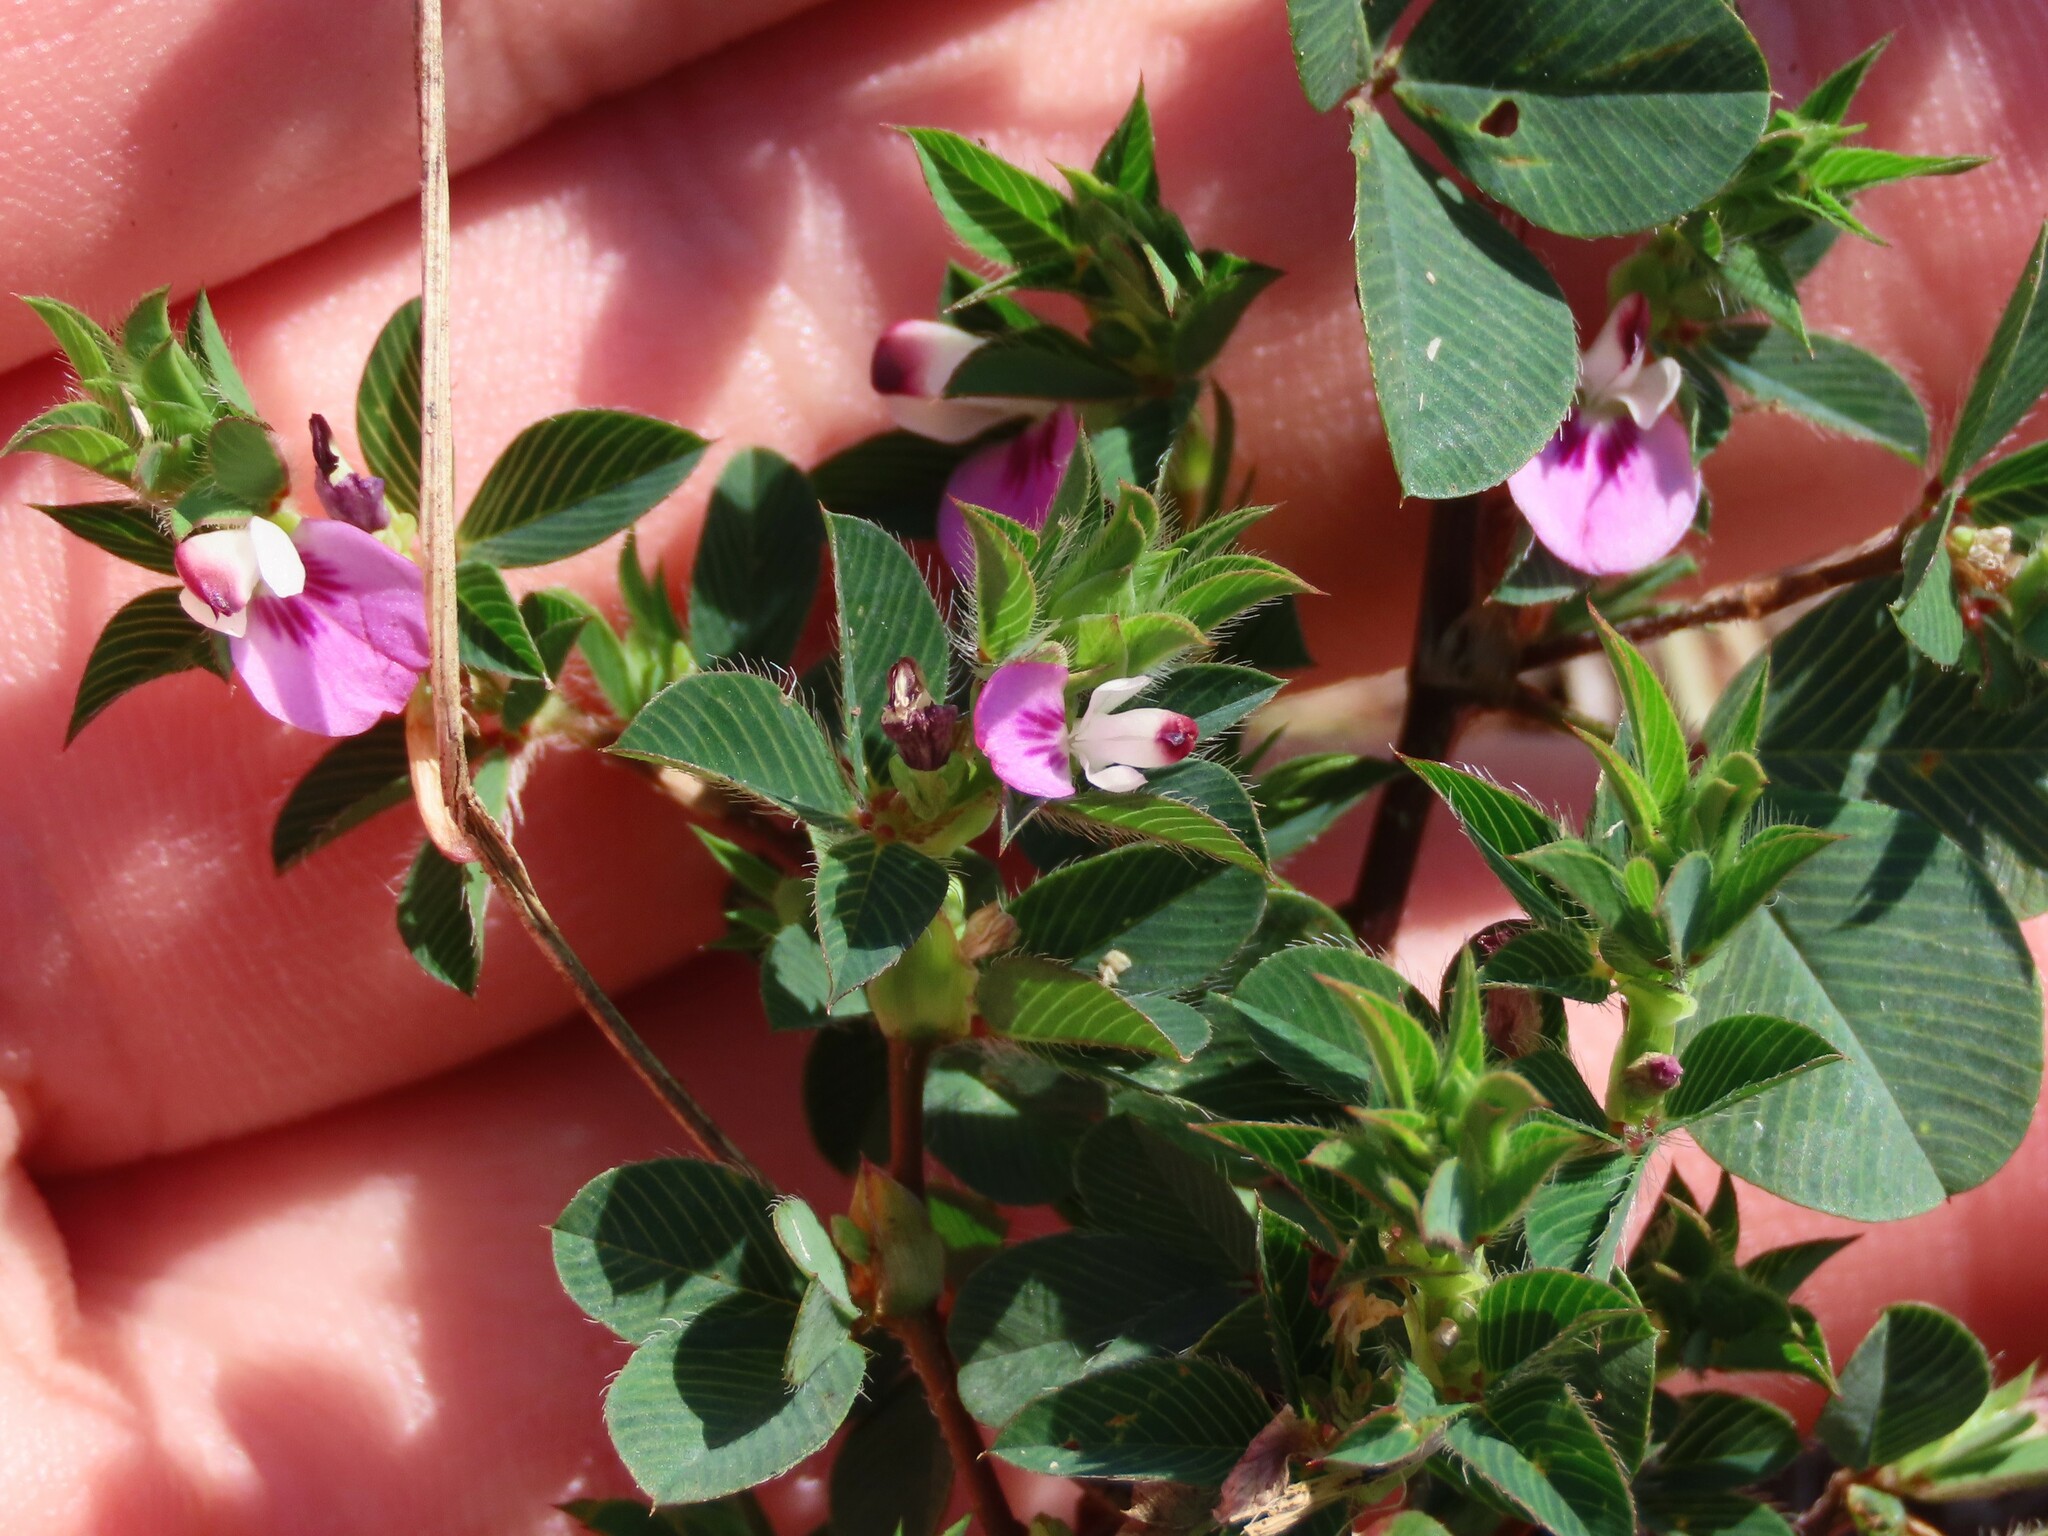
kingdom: Plantae
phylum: Tracheophyta
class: Magnoliopsida
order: Fabales
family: Fabaceae
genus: Kummerowia
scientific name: Kummerowia stipulacea
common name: Korean clover
